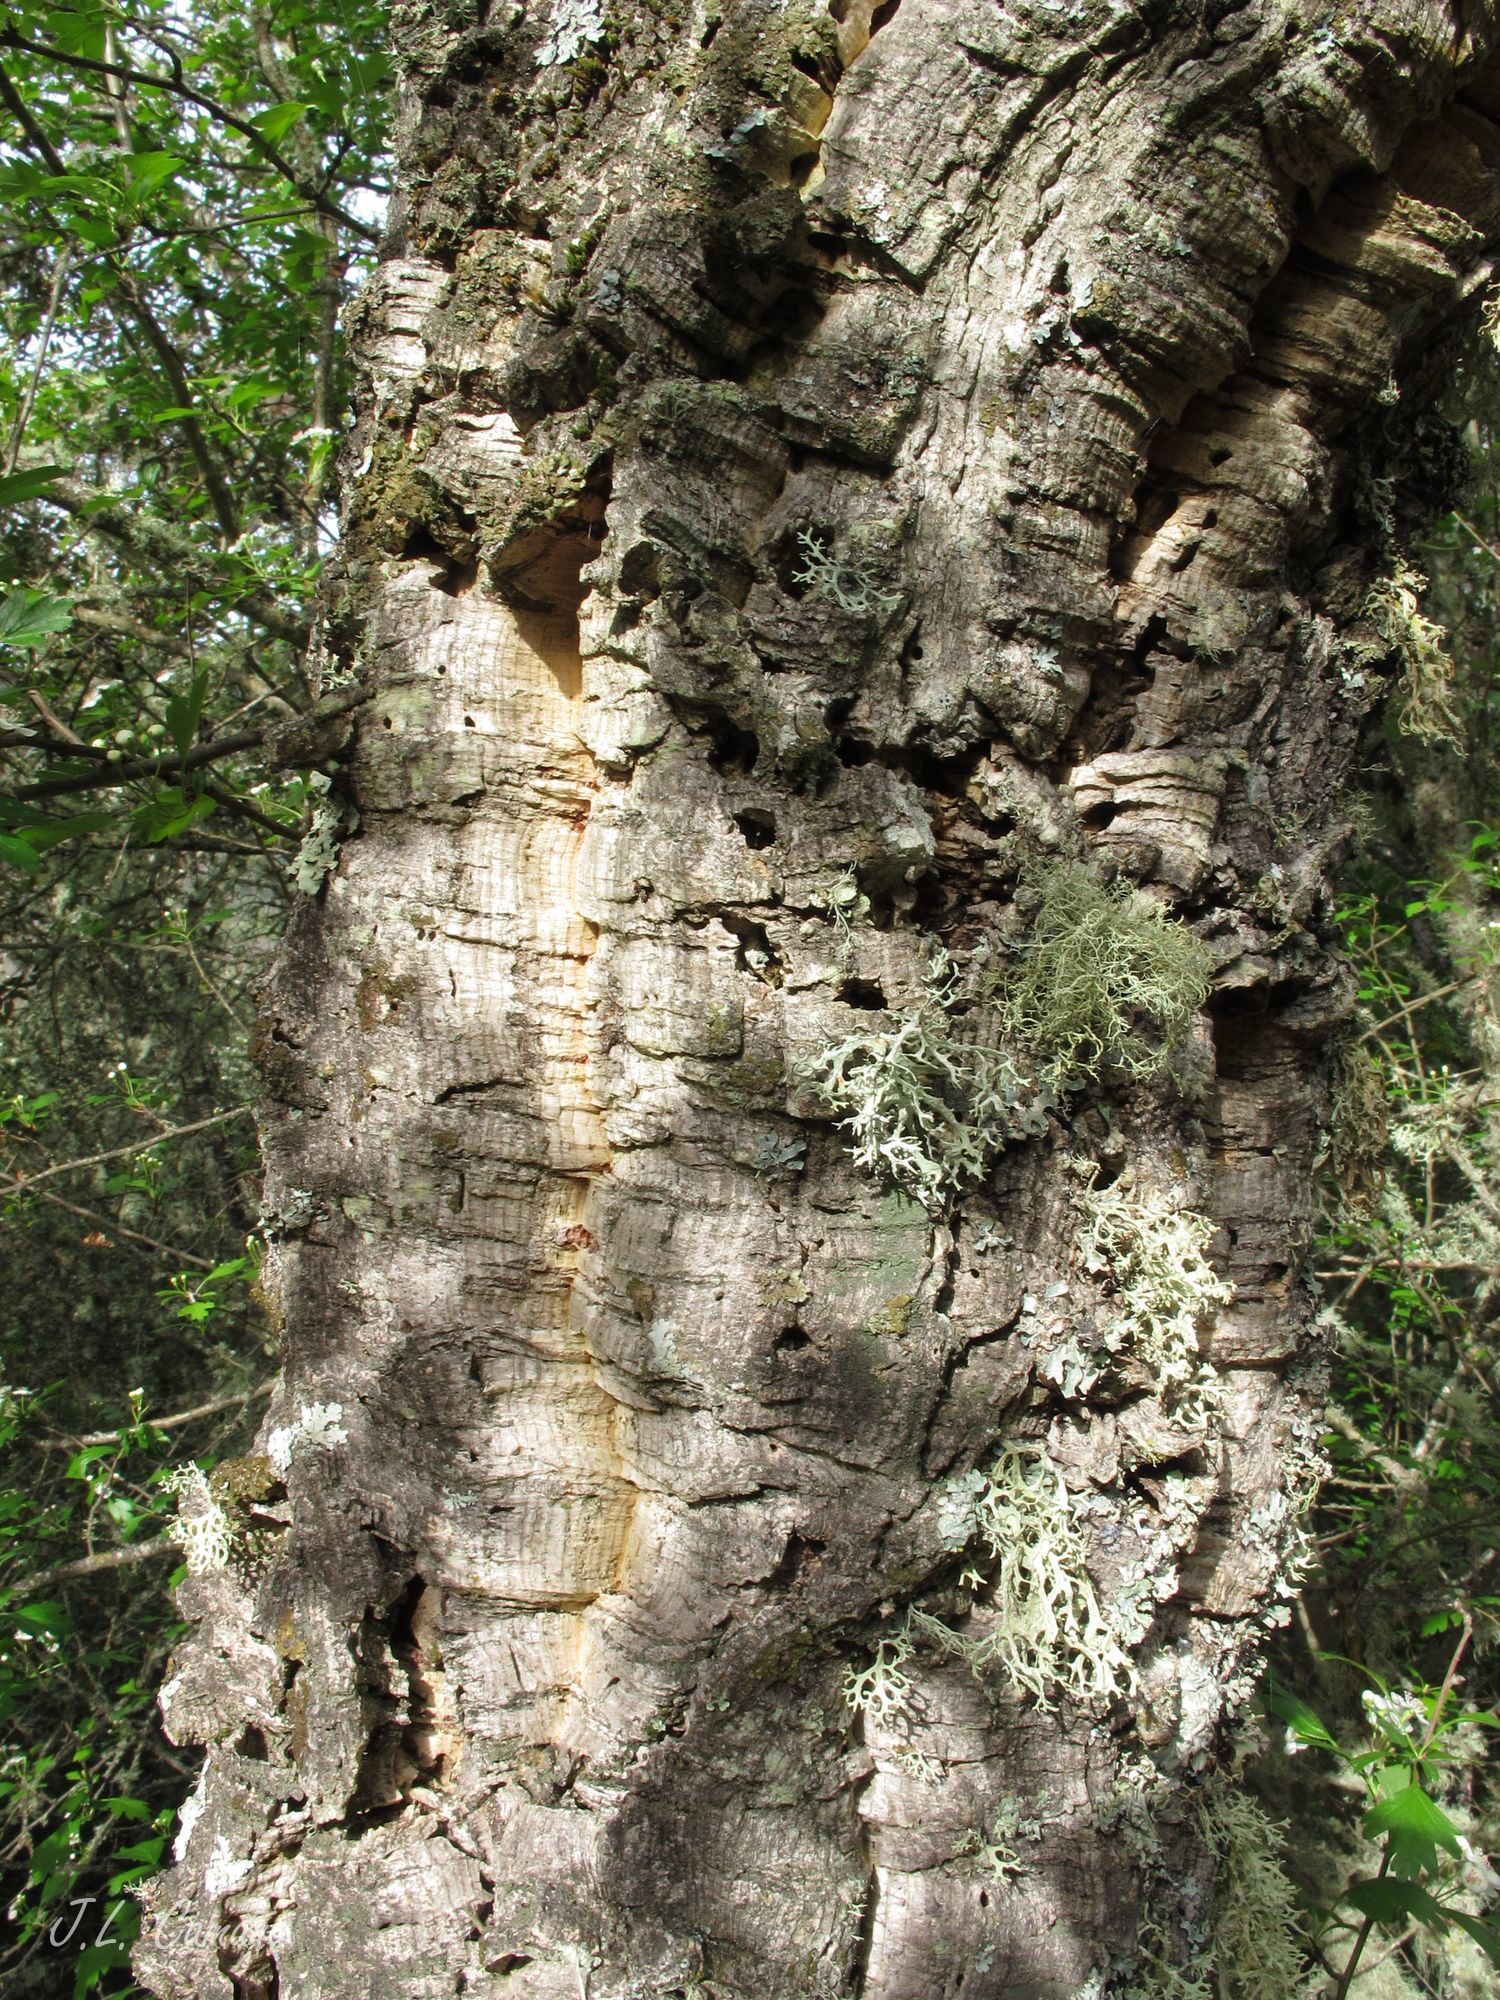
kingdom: Plantae
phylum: Tracheophyta
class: Magnoliopsida
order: Fagales
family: Fagaceae
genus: Quercus
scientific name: Quercus suber
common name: Cork oak
